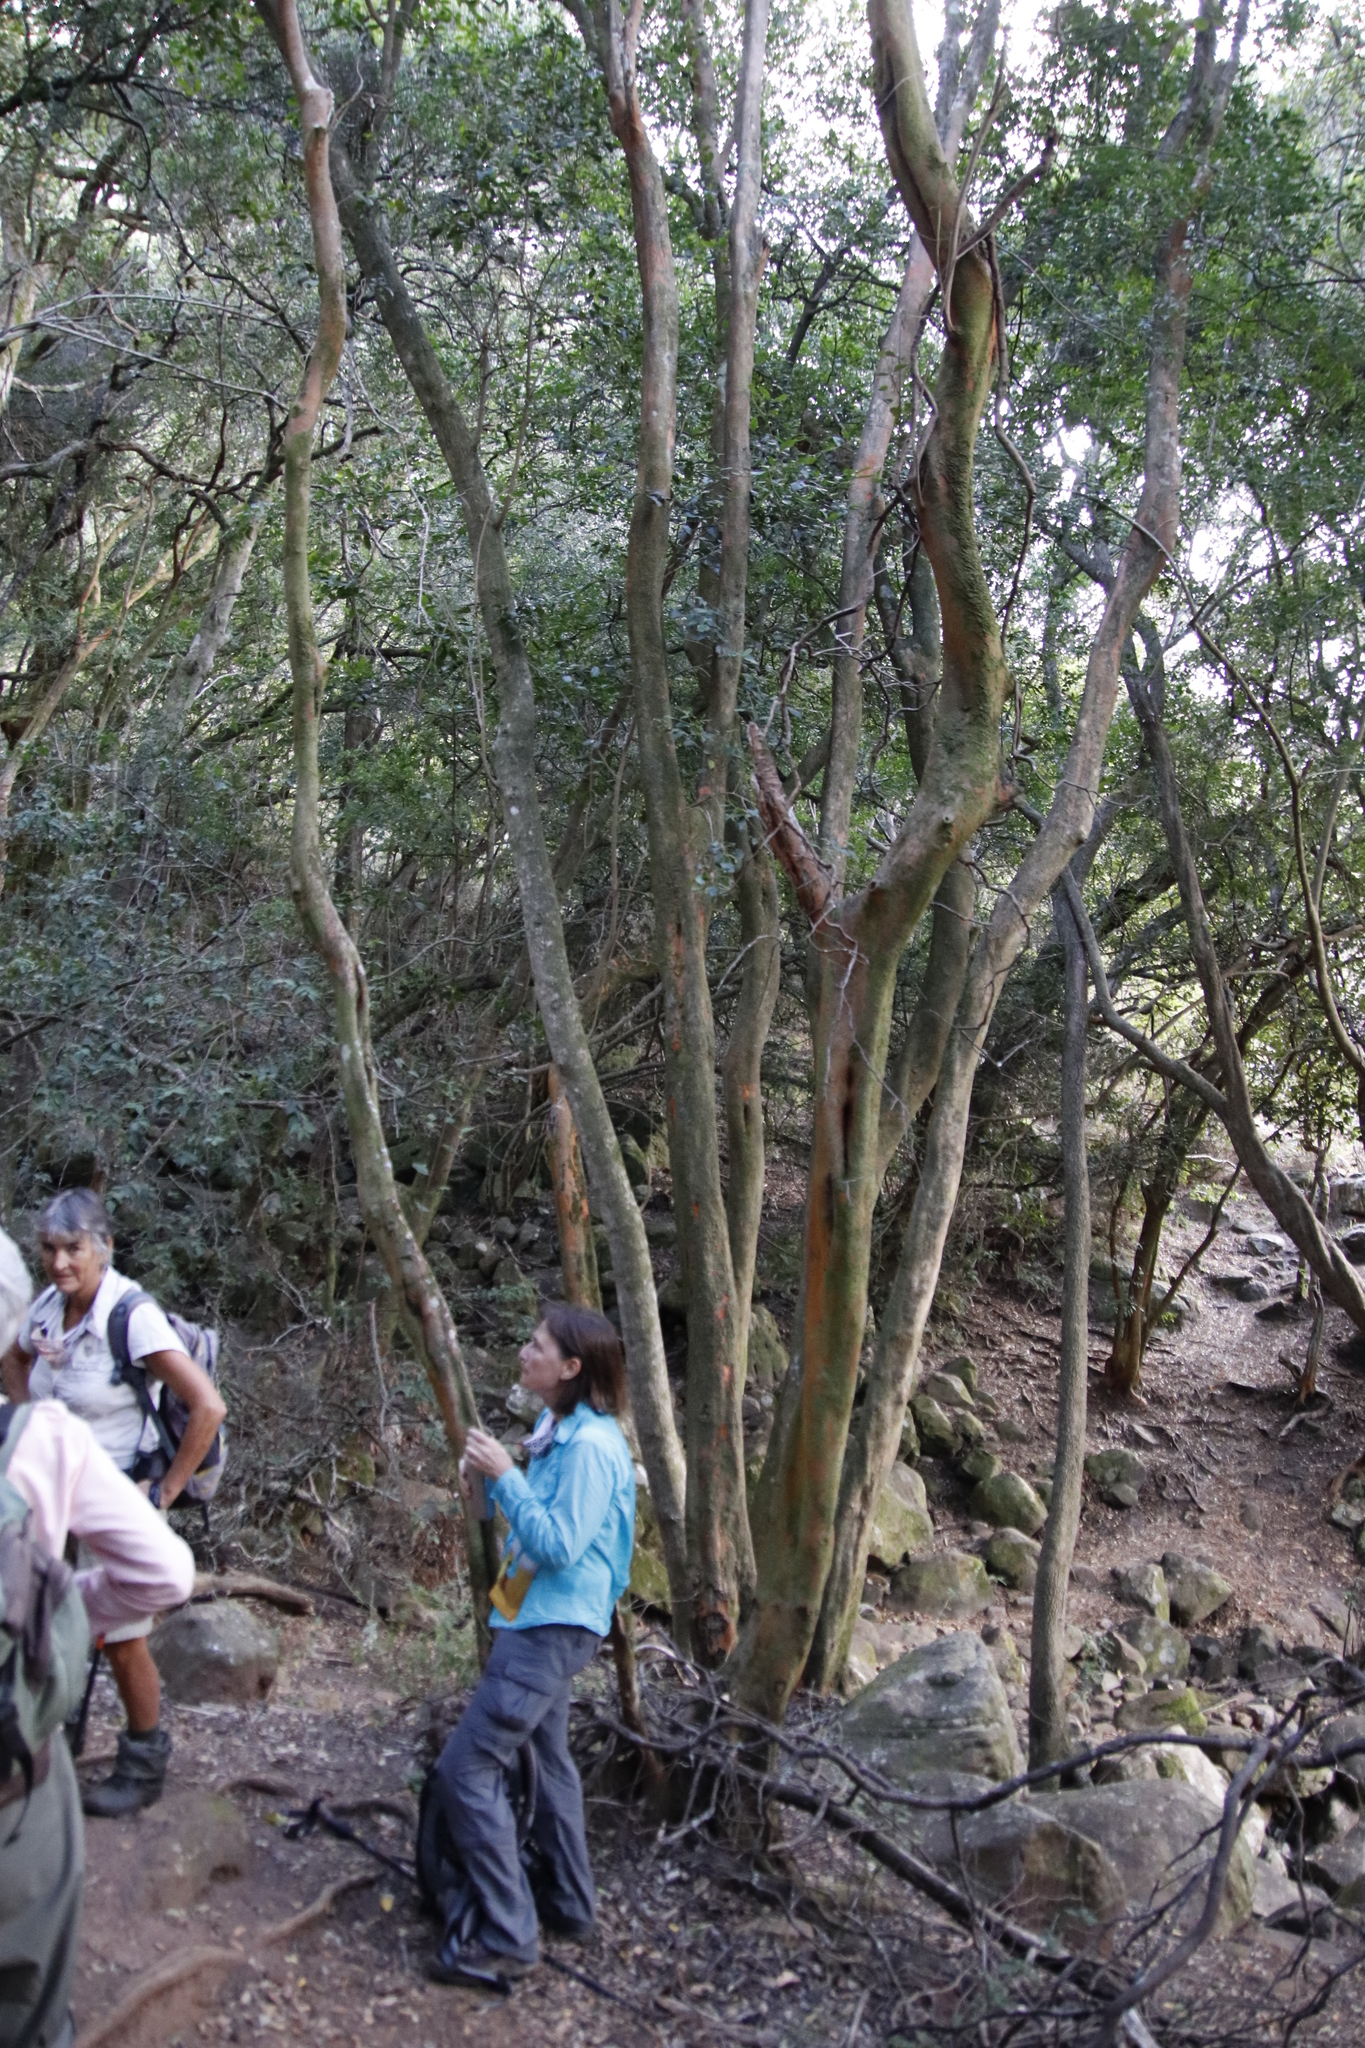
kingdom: Plantae
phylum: Tracheophyta
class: Magnoliopsida
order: Celastrales
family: Celastraceae
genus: Cassine
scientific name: Cassine peragua
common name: Cape saffron
